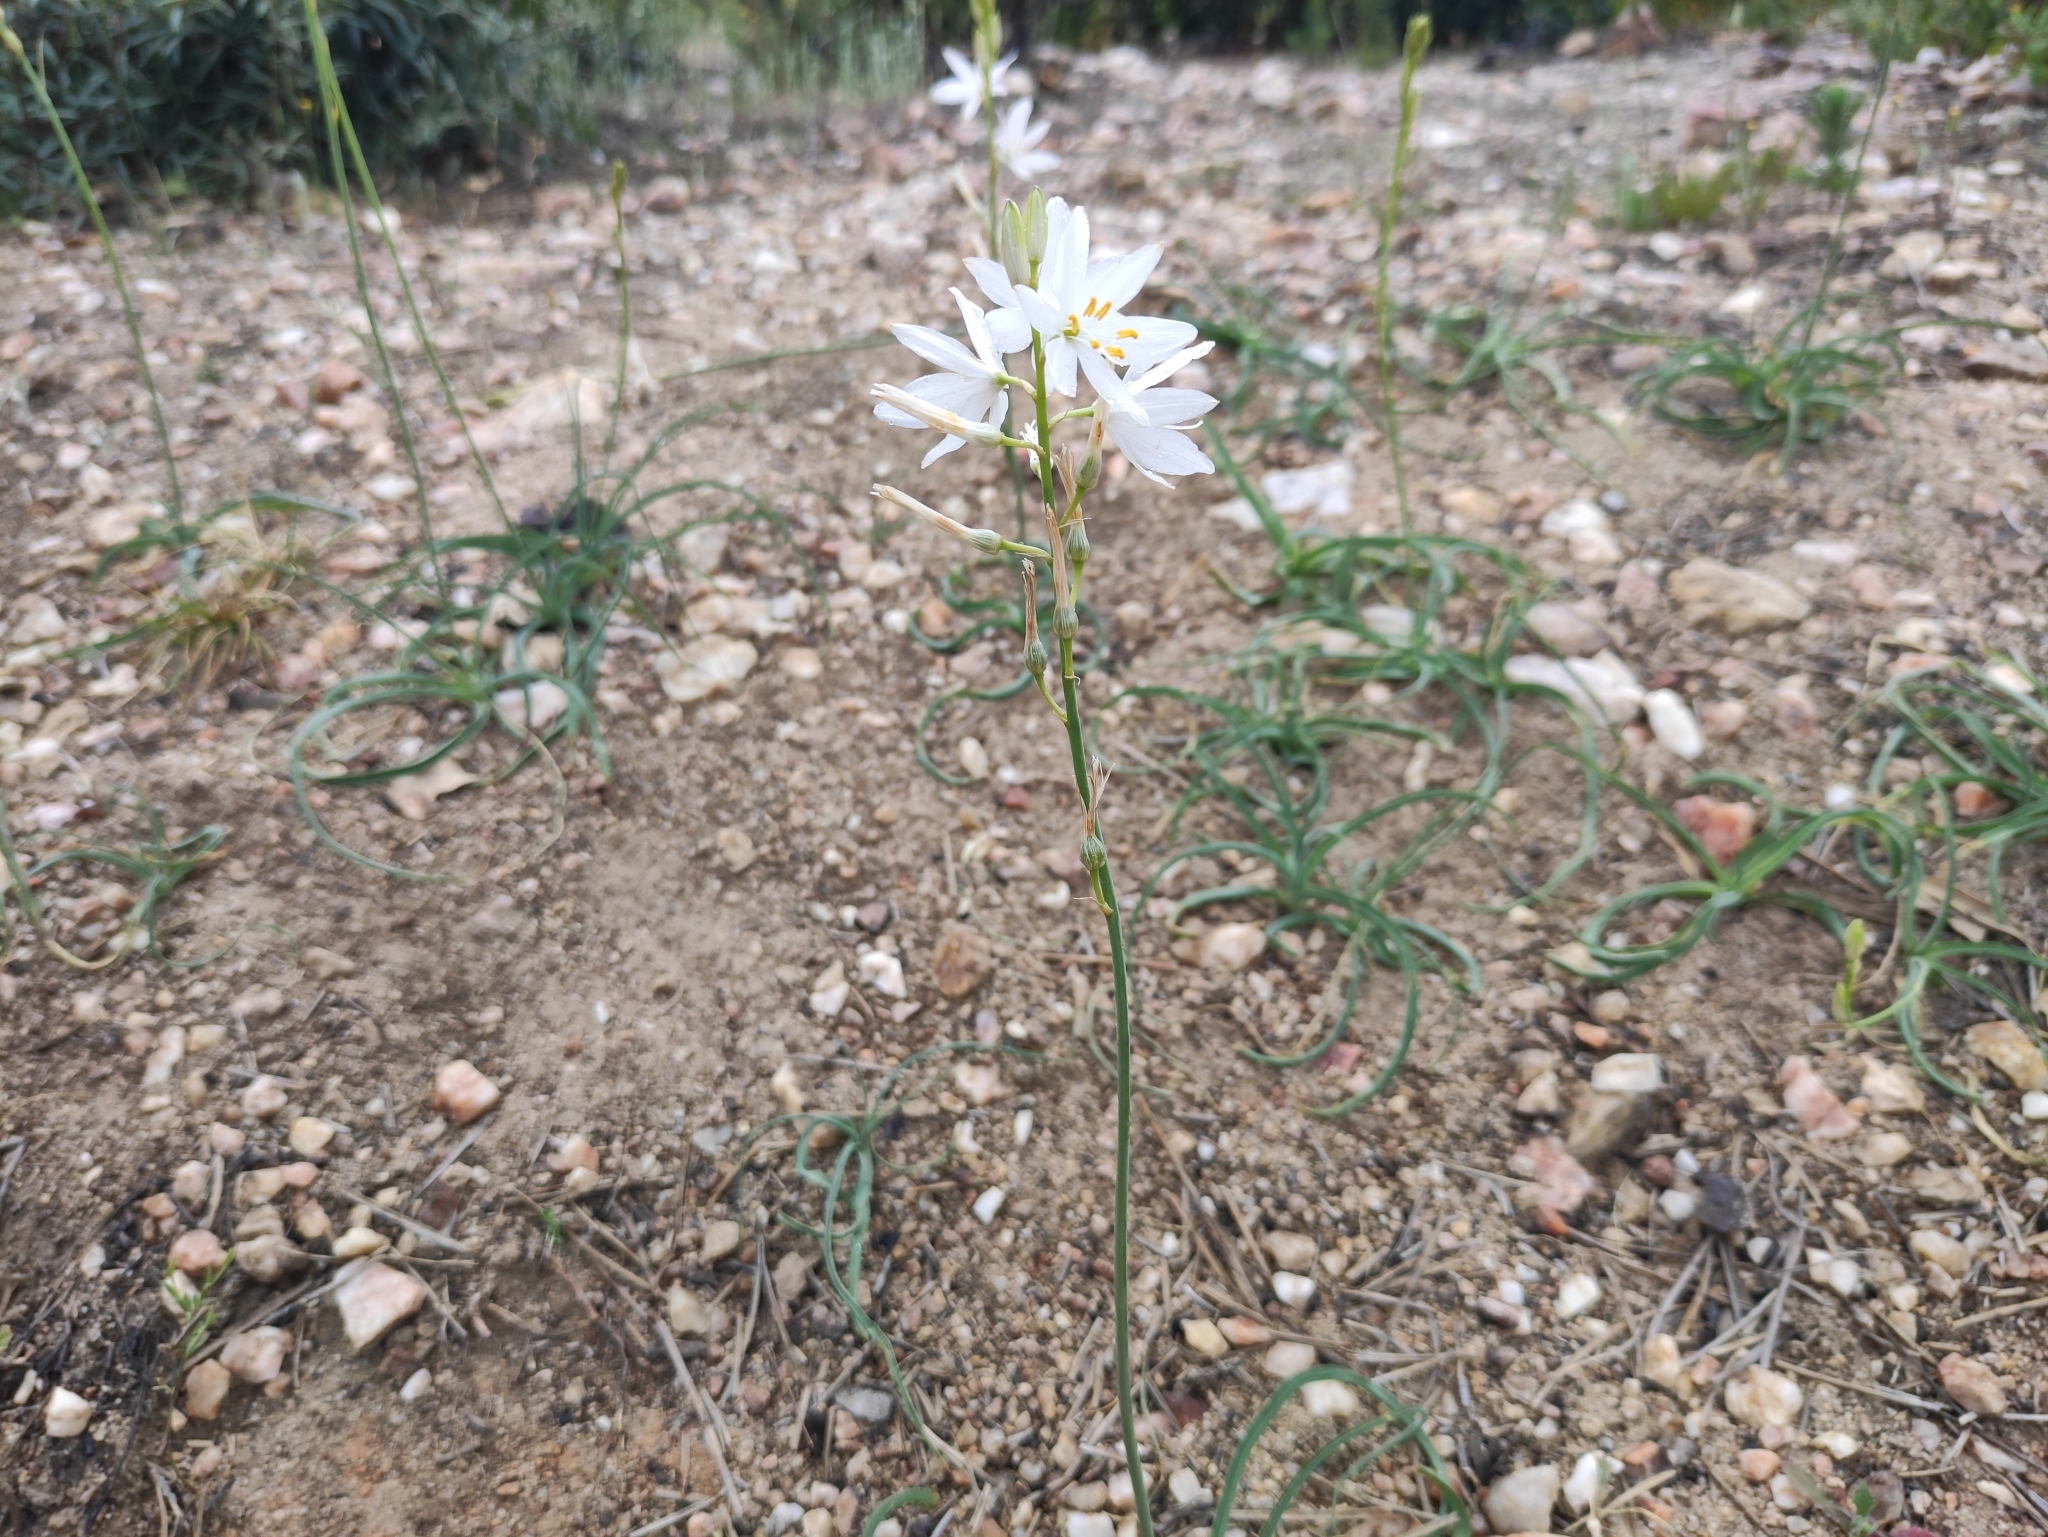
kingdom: Plantae
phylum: Tracheophyta
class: Liliopsida
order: Asparagales
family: Asparagaceae
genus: Anthericum
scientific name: Anthericum liliago
